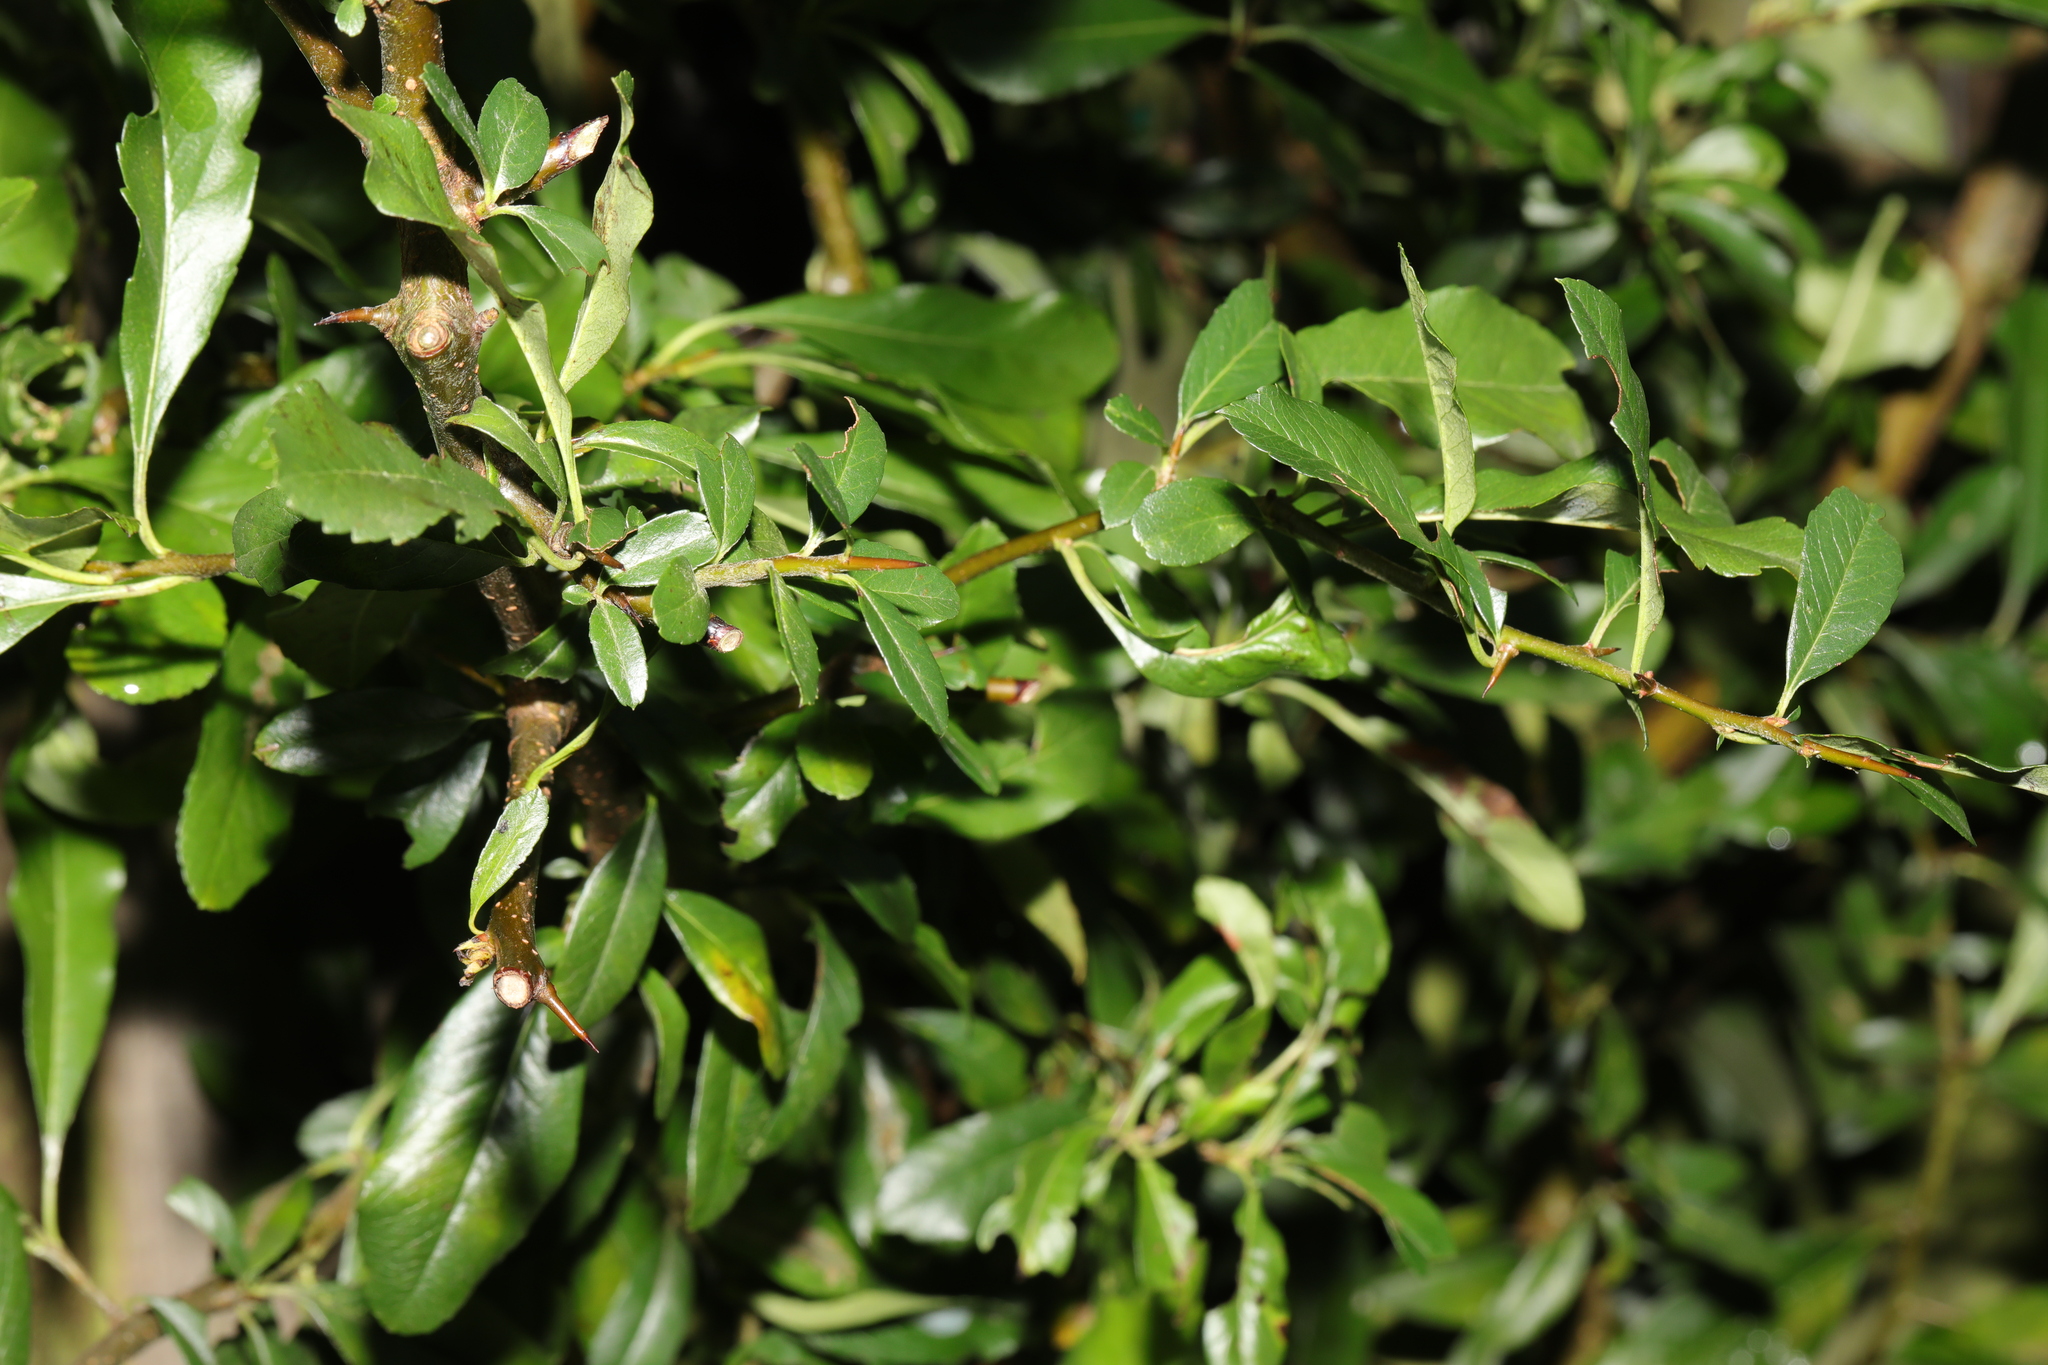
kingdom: Plantae
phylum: Tracheophyta
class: Magnoliopsida
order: Rosales
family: Rosaceae
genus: Pyracantha
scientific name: Pyracantha coccinea
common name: Firethorn
